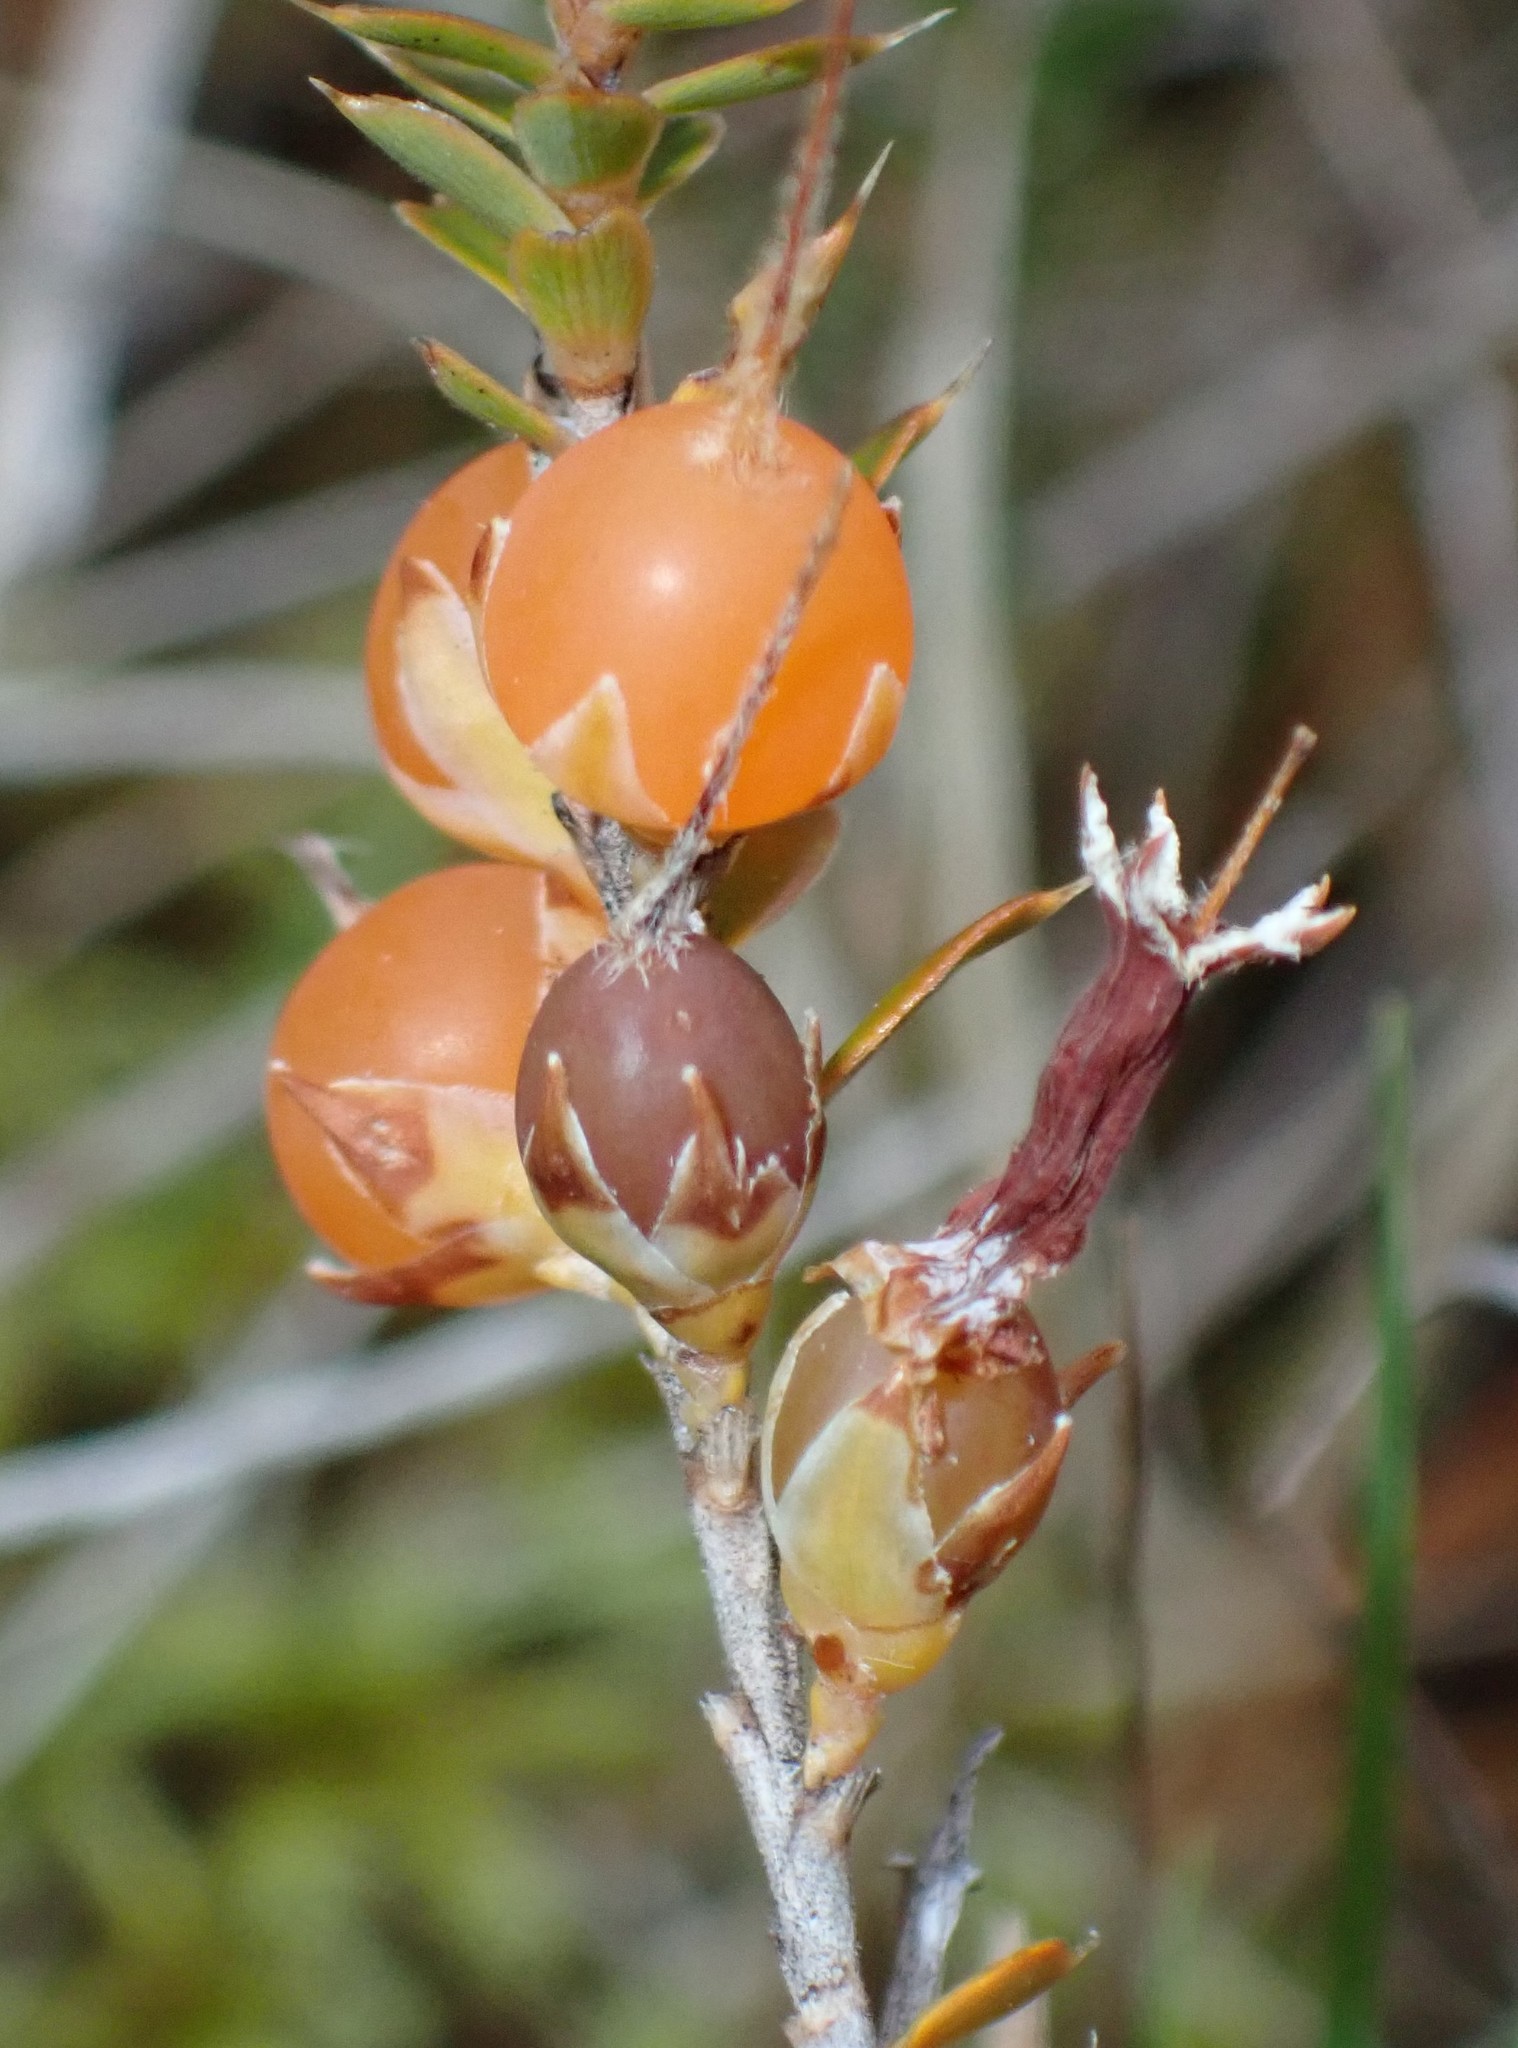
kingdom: Plantae
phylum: Tracheophyta
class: Magnoliopsida
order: Ericales
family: Ericaceae
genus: Styphelia
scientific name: Styphelia nesophila
